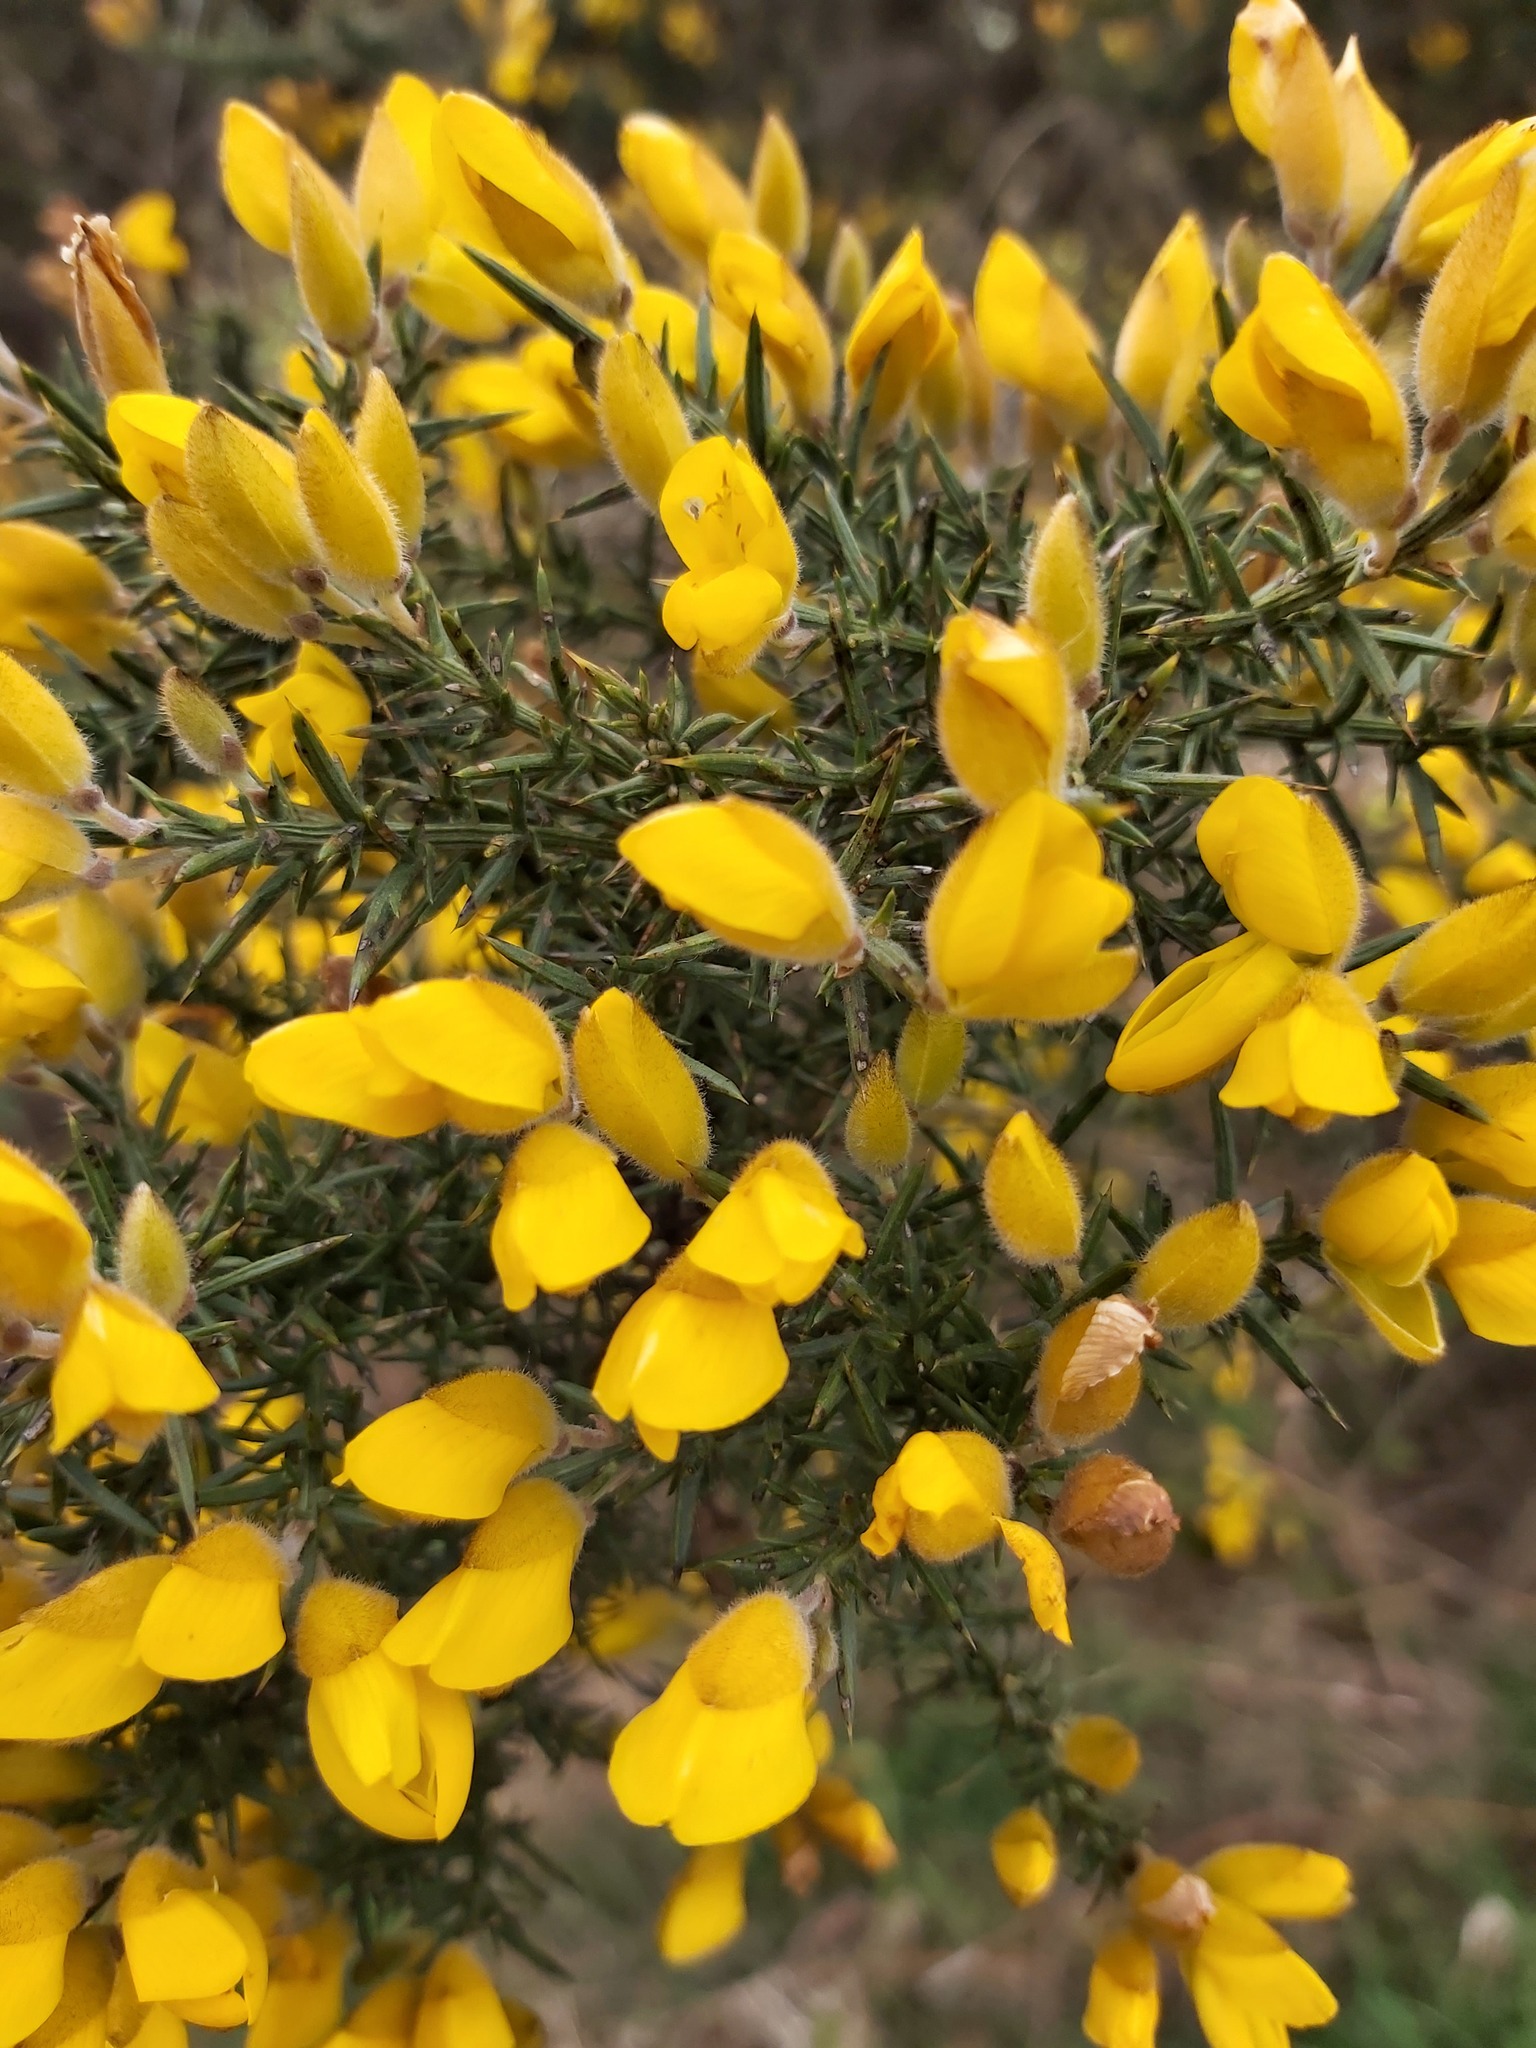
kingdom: Plantae
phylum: Tracheophyta
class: Magnoliopsida
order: Fabales
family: Fabaceae
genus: Ulex
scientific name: Ulex europaeus
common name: Common gorse
